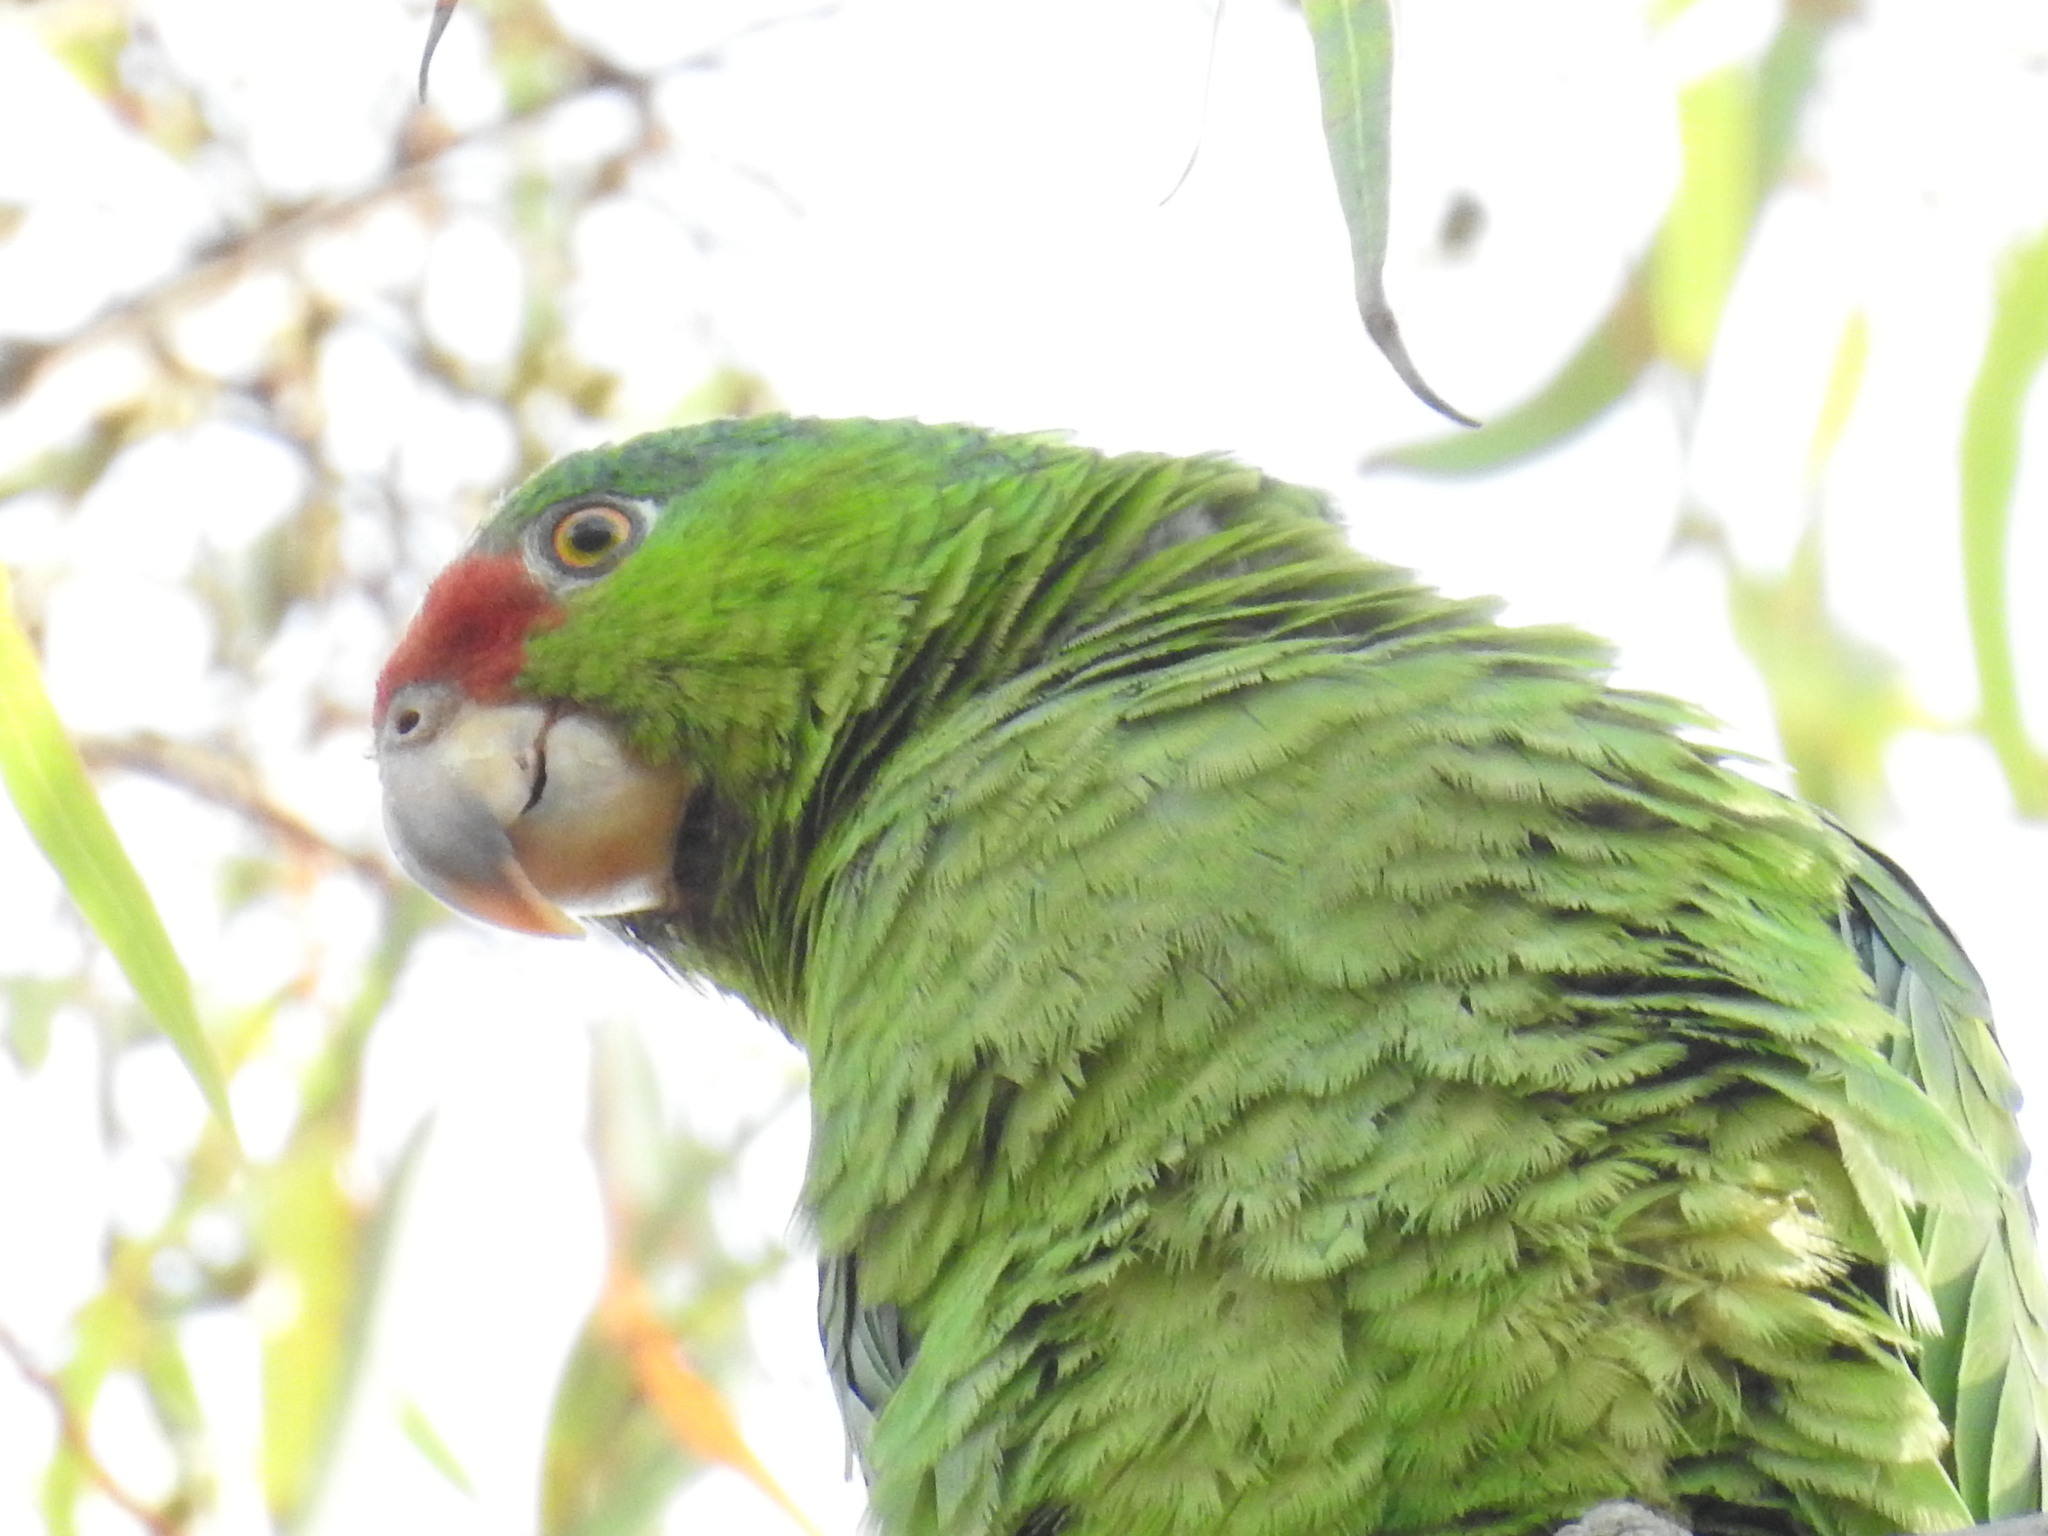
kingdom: Animalia
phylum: Chordata
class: Aves
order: Psittaciformes
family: Psittacidae
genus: Amazona
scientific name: Amazona viridigenalis
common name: Red-crowned amazon
